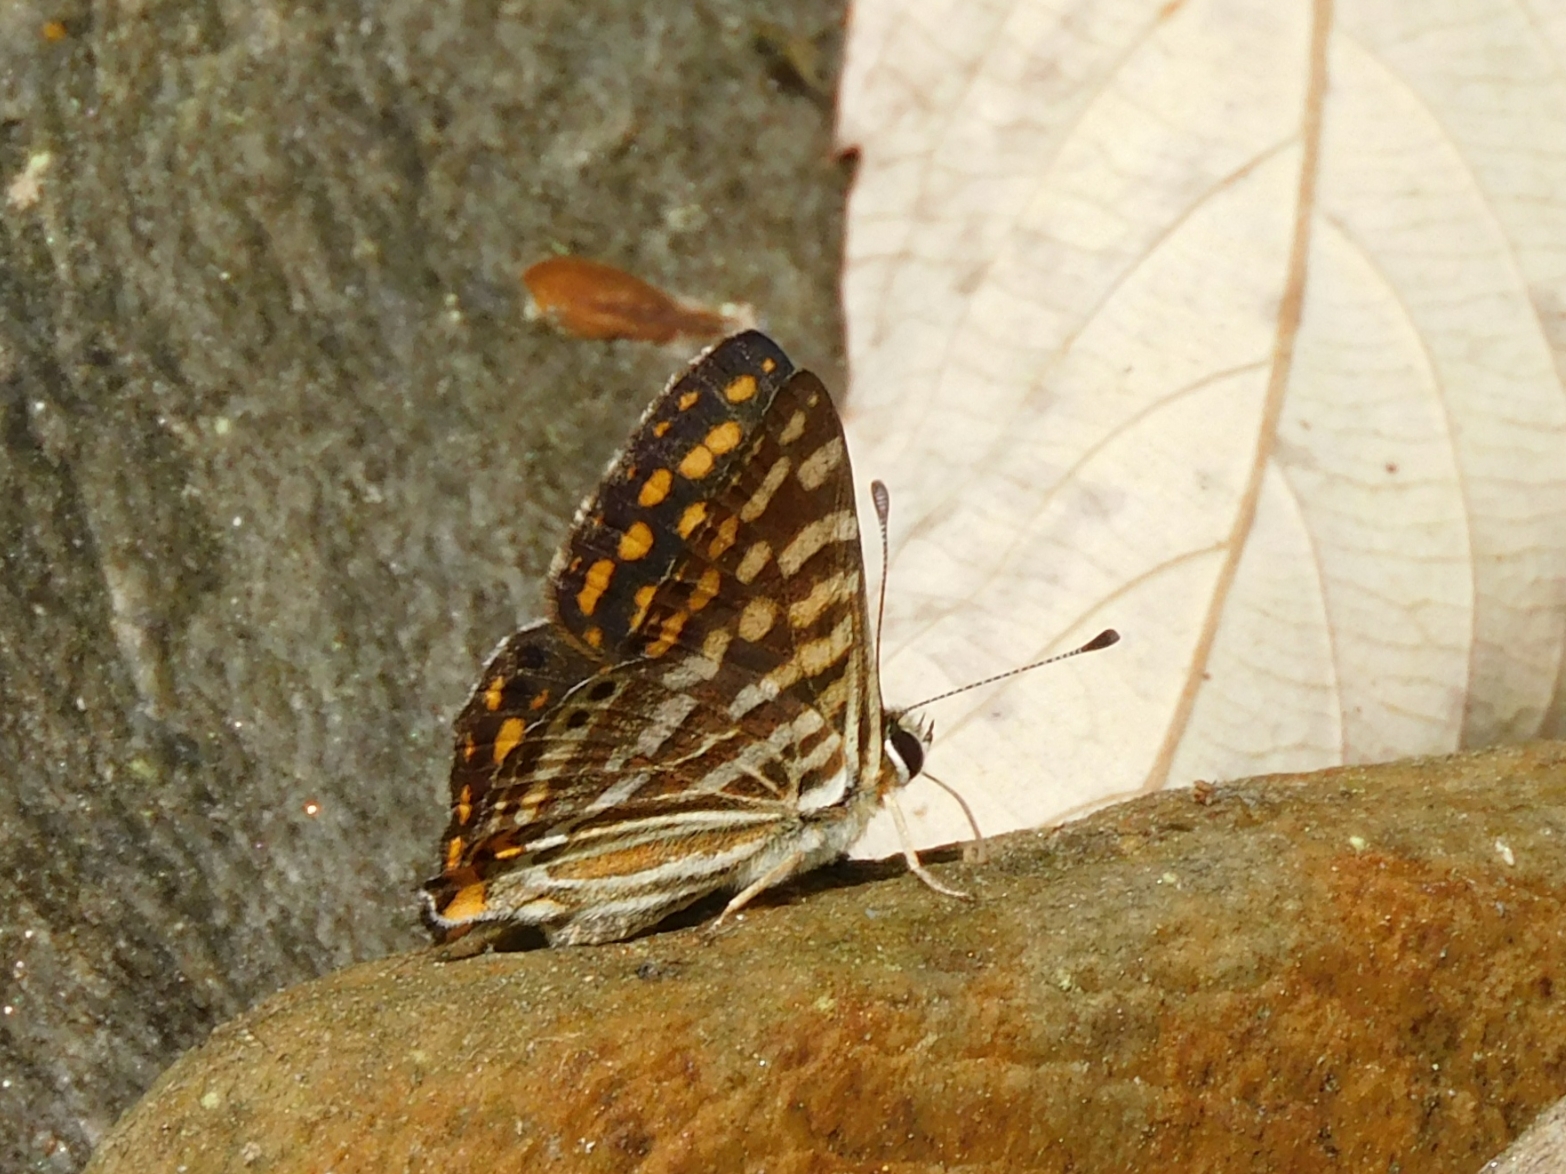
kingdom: Animalia
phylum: Arthropoda
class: Insecta
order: Lepidoptera
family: Lycaenidae
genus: Dodona
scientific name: Dodona durga
